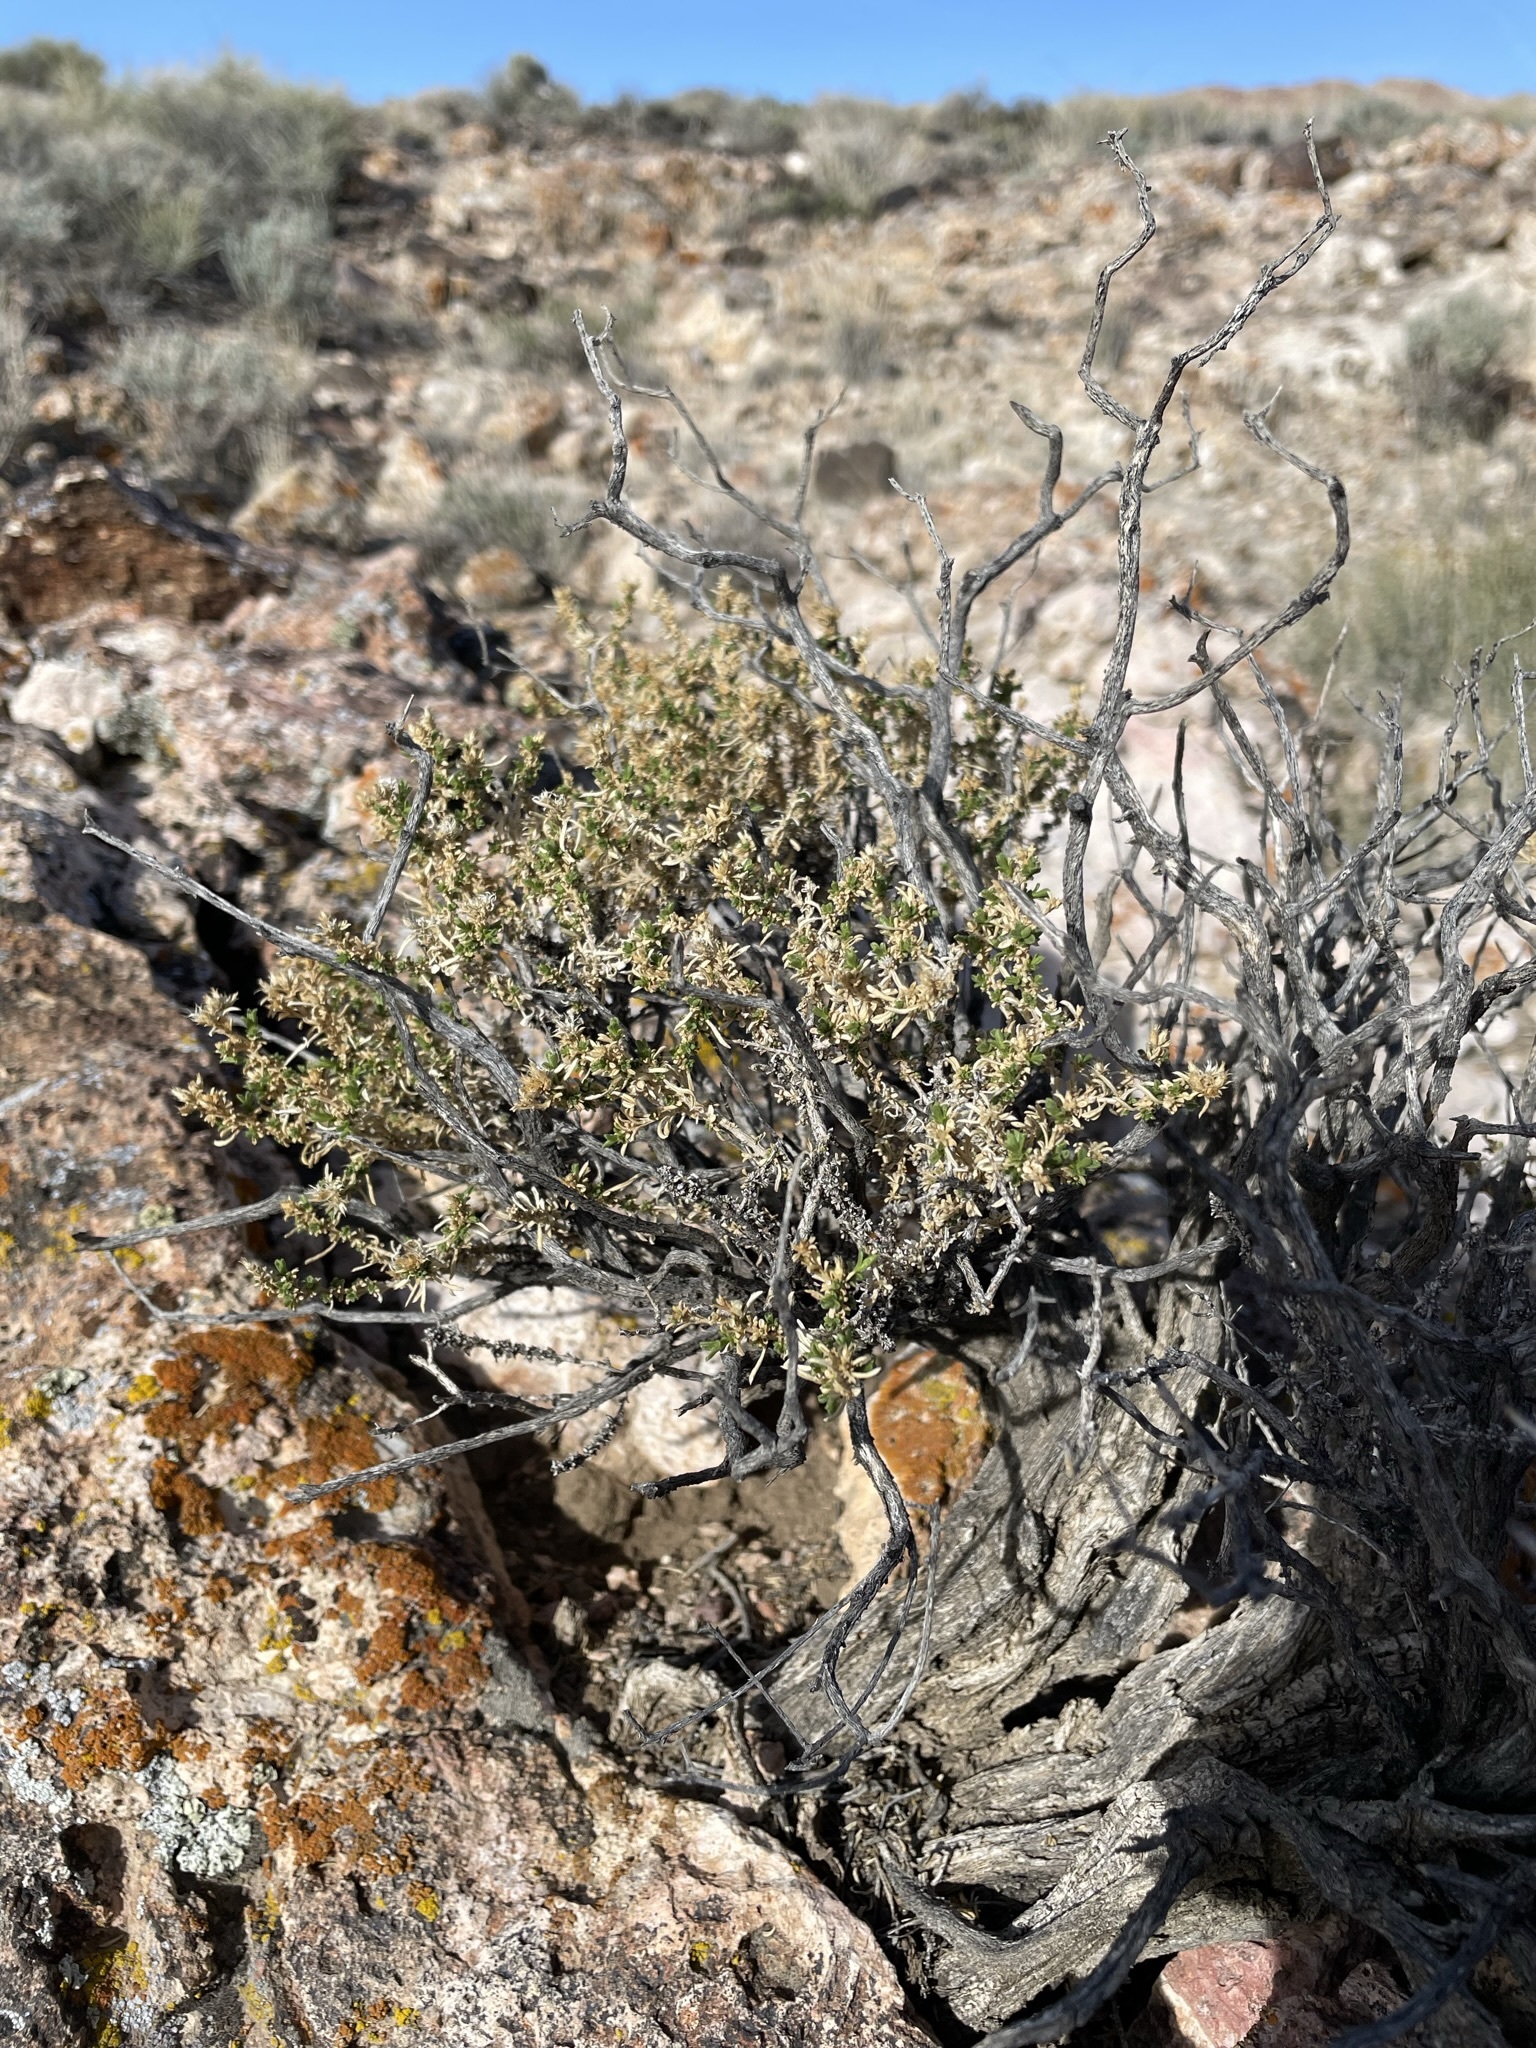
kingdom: Plantae
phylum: Tracheophyta
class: Magnoliopsida
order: Asterales
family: Asteraceae
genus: Ericameria
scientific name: Ericameria nana
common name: Dwarf goldenbush
